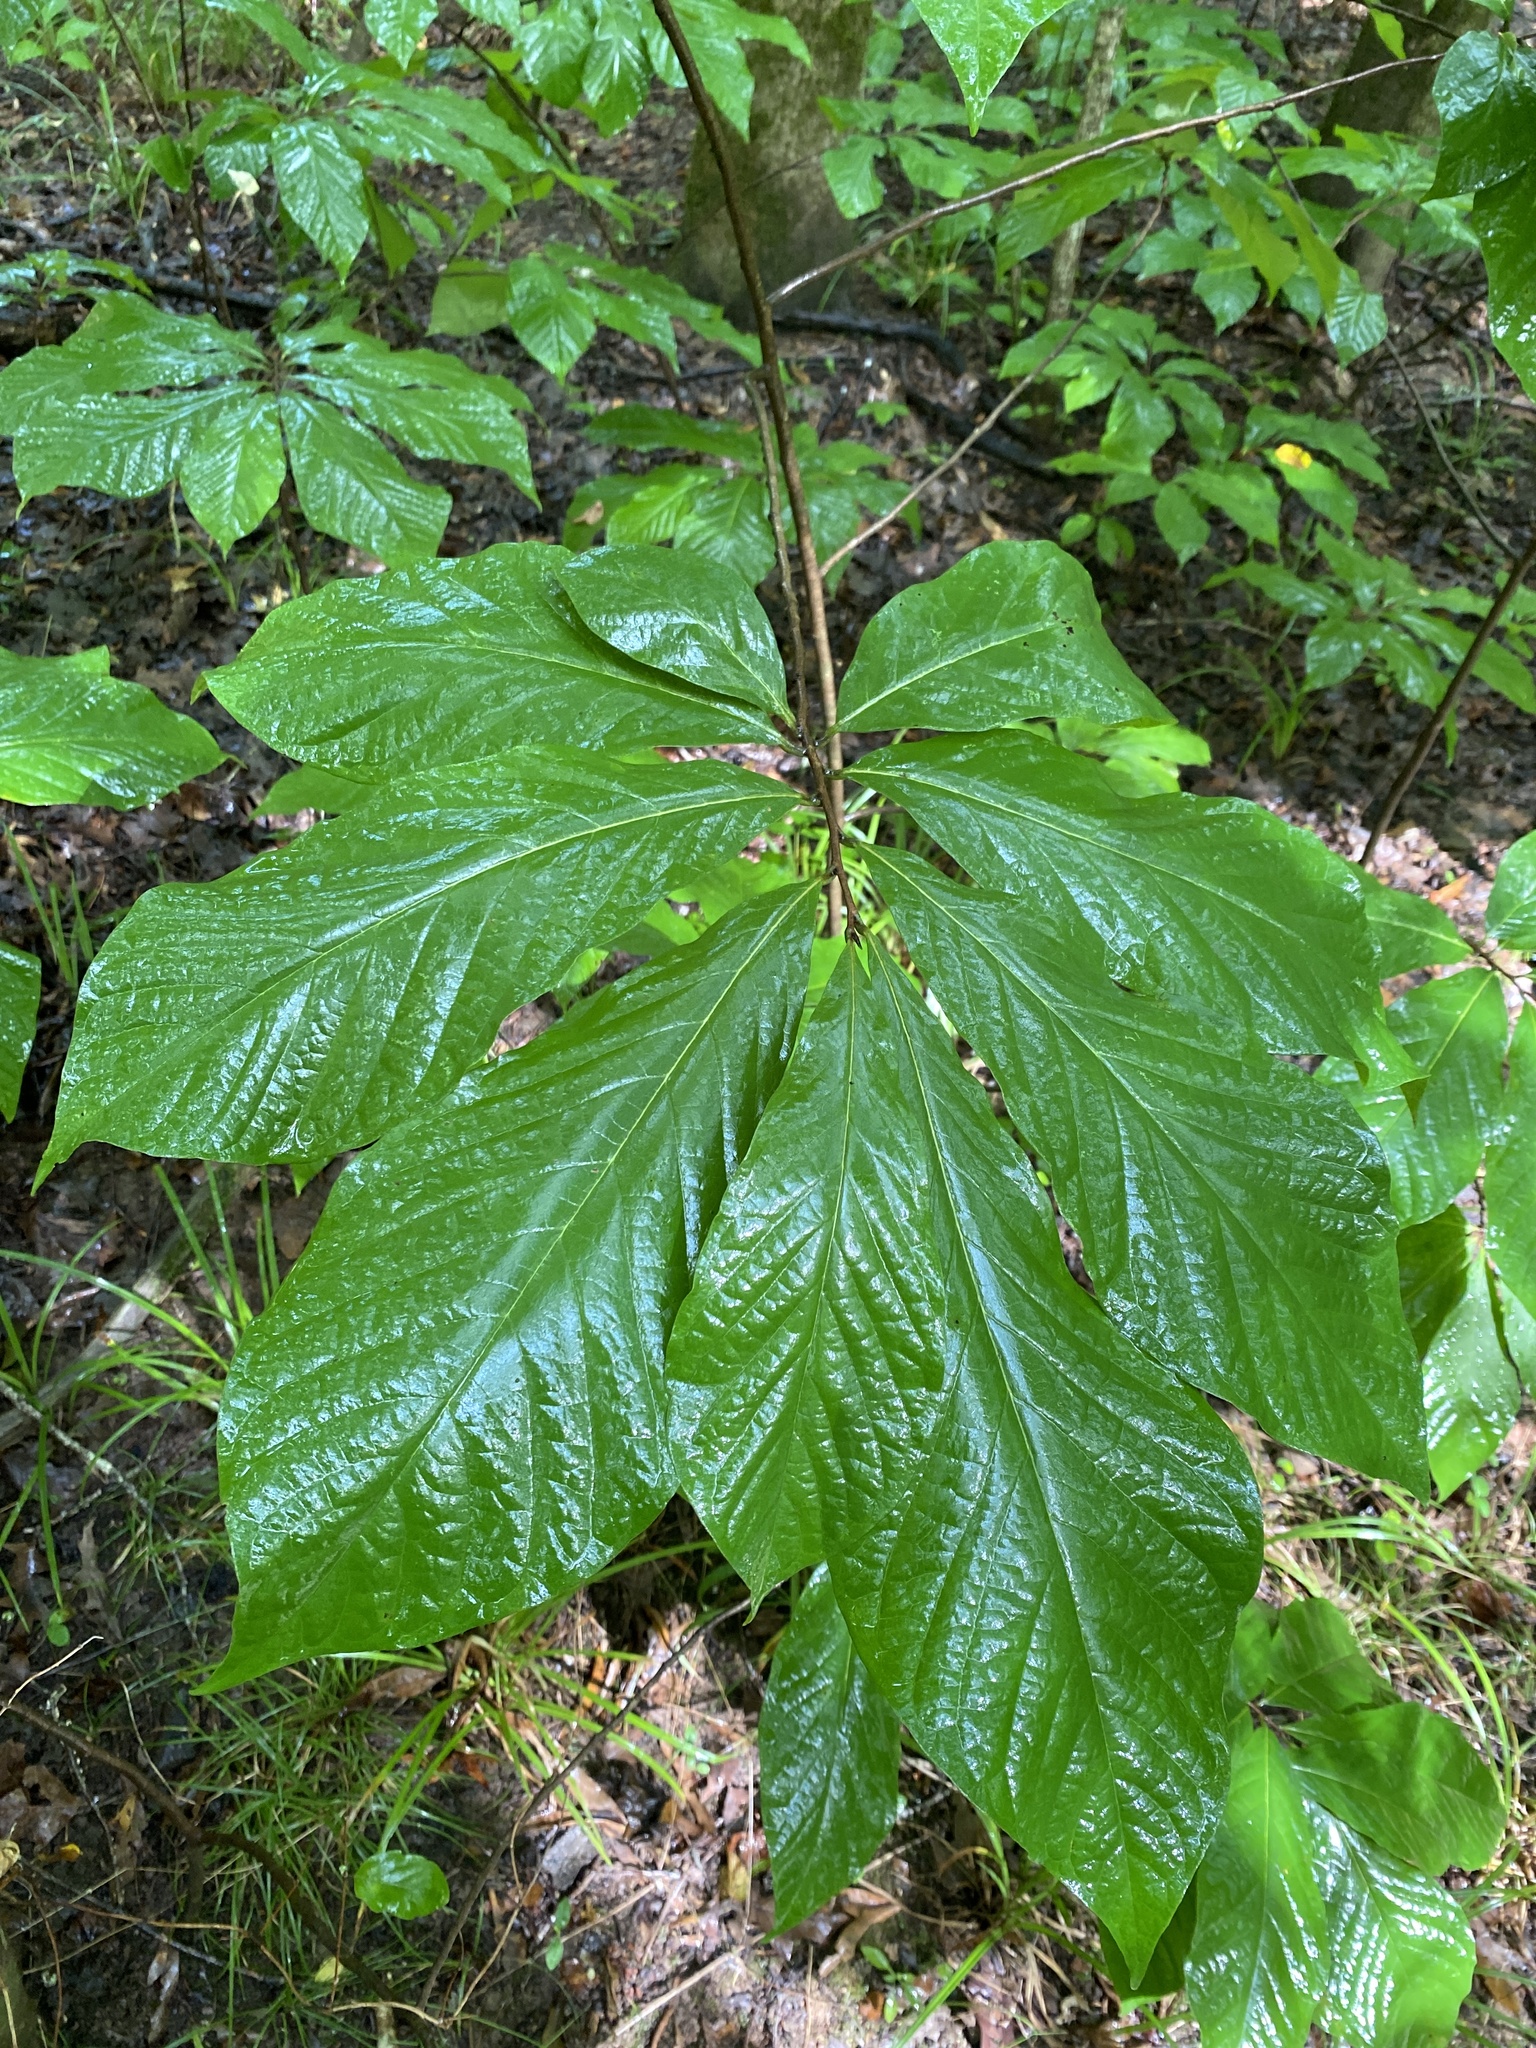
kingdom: Plantae
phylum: Tracheophyta
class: Magnoliopsida
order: Magnoliales
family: Annonaceae
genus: Asimina
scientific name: Asimina triloba
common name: Dog-banana
